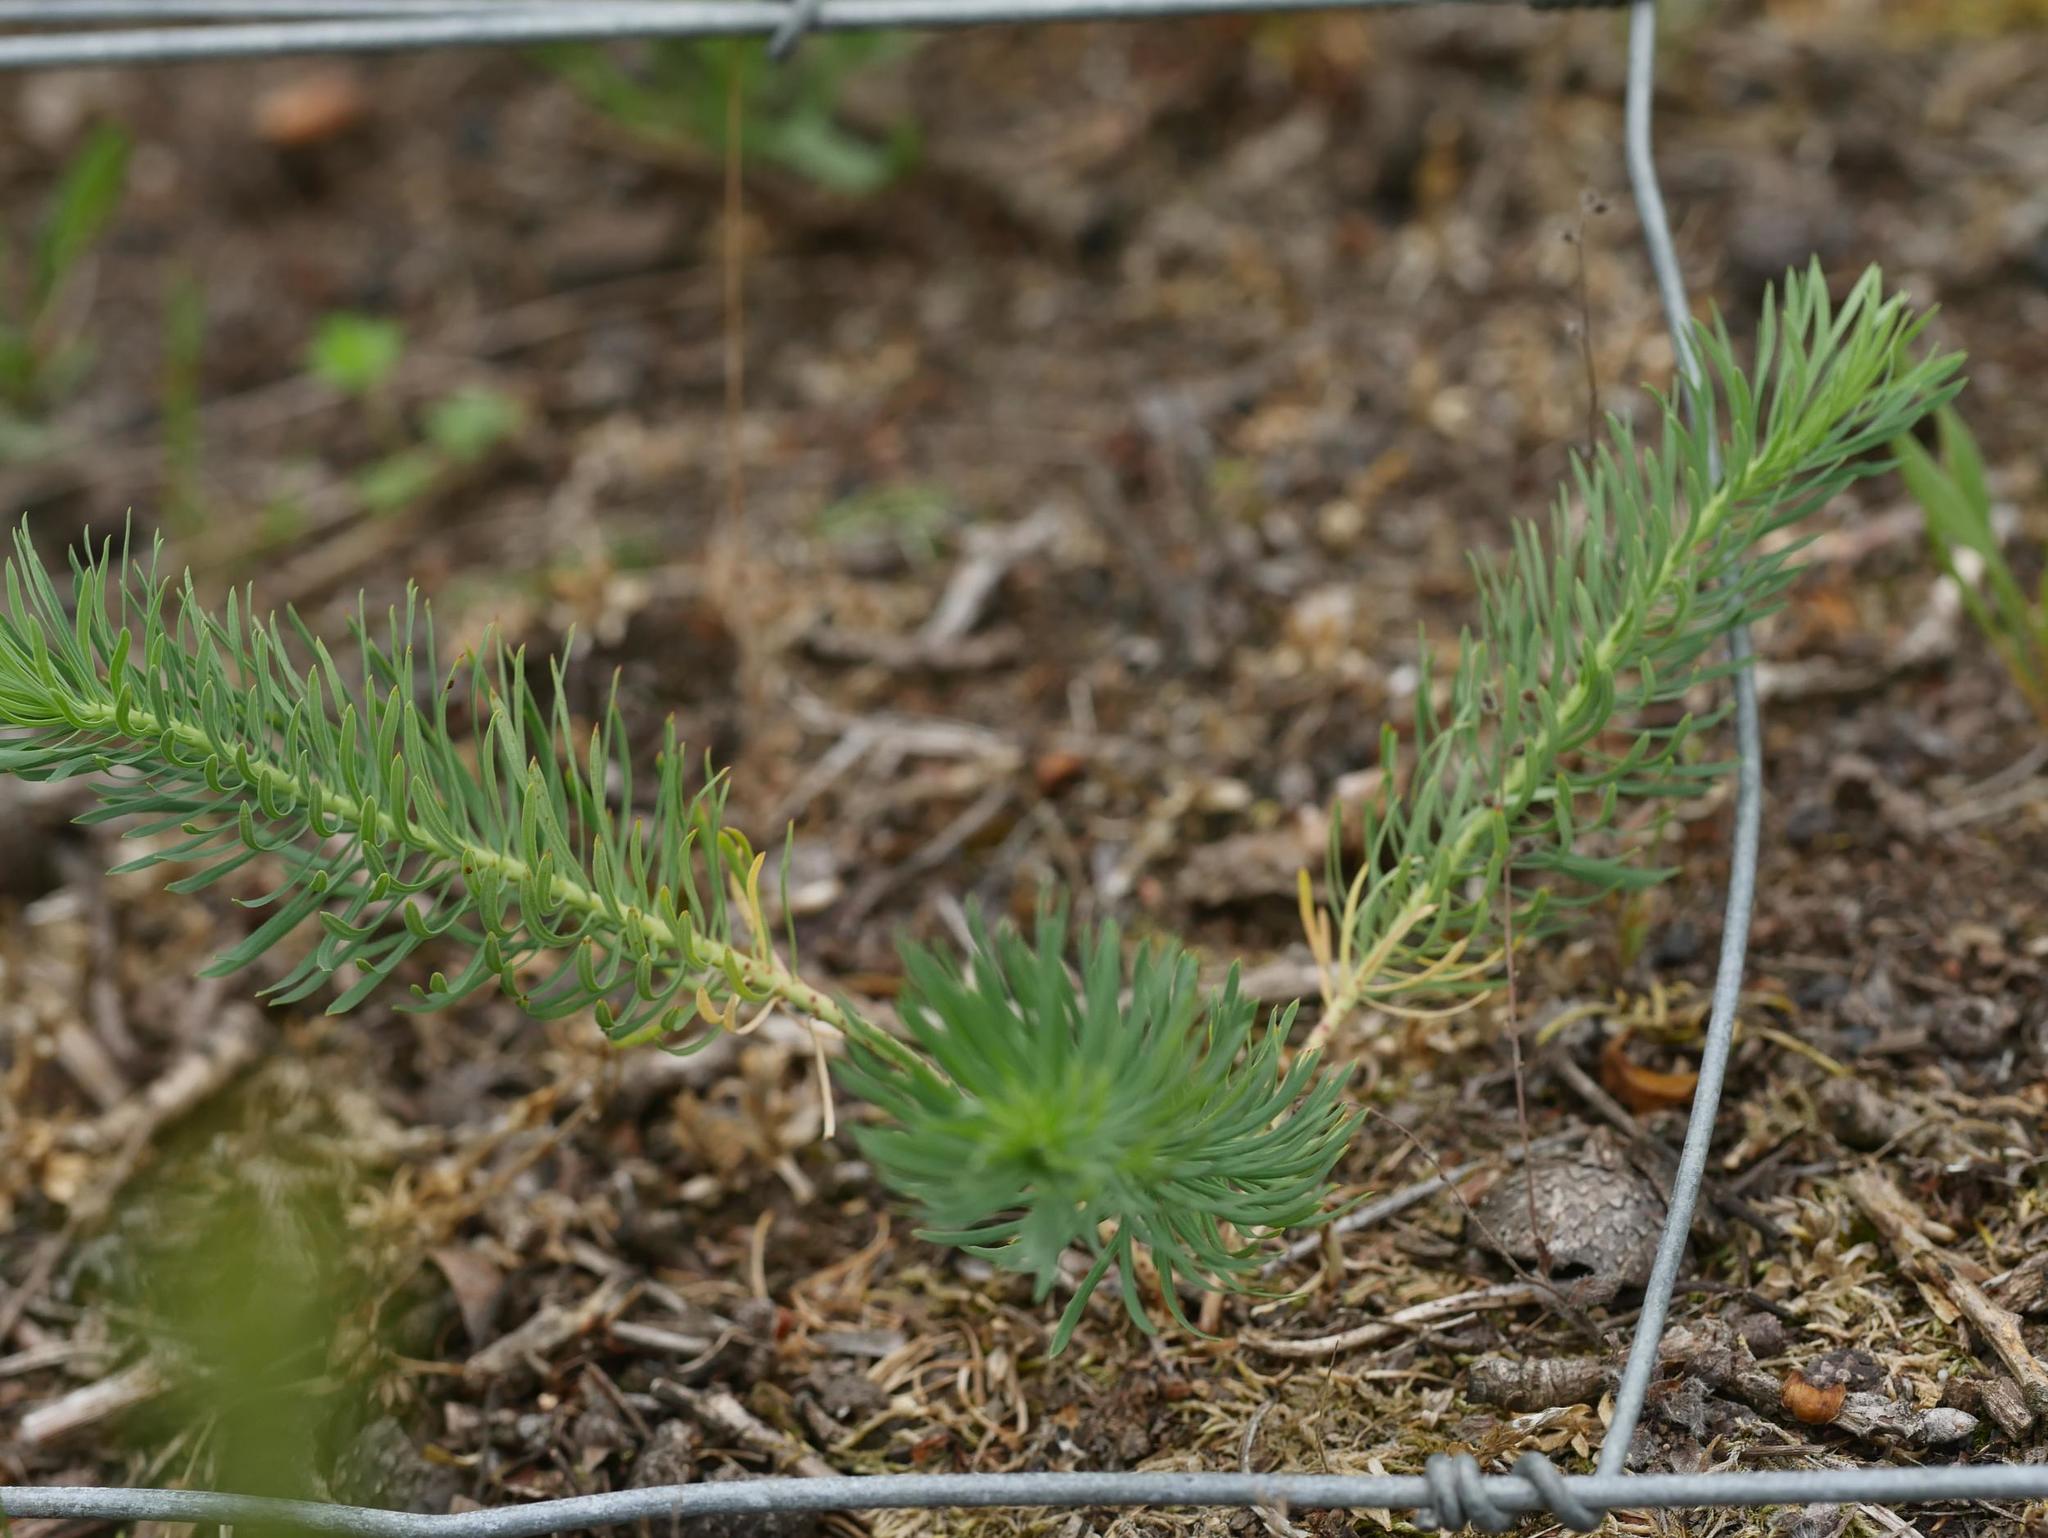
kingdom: Plantae
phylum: Tracheophyta
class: Magnoliopsida
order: Malpighiales
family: Euphorbiaceae
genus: Euphorbia
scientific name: Euphorbia cyparissias
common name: Cypress spurge
